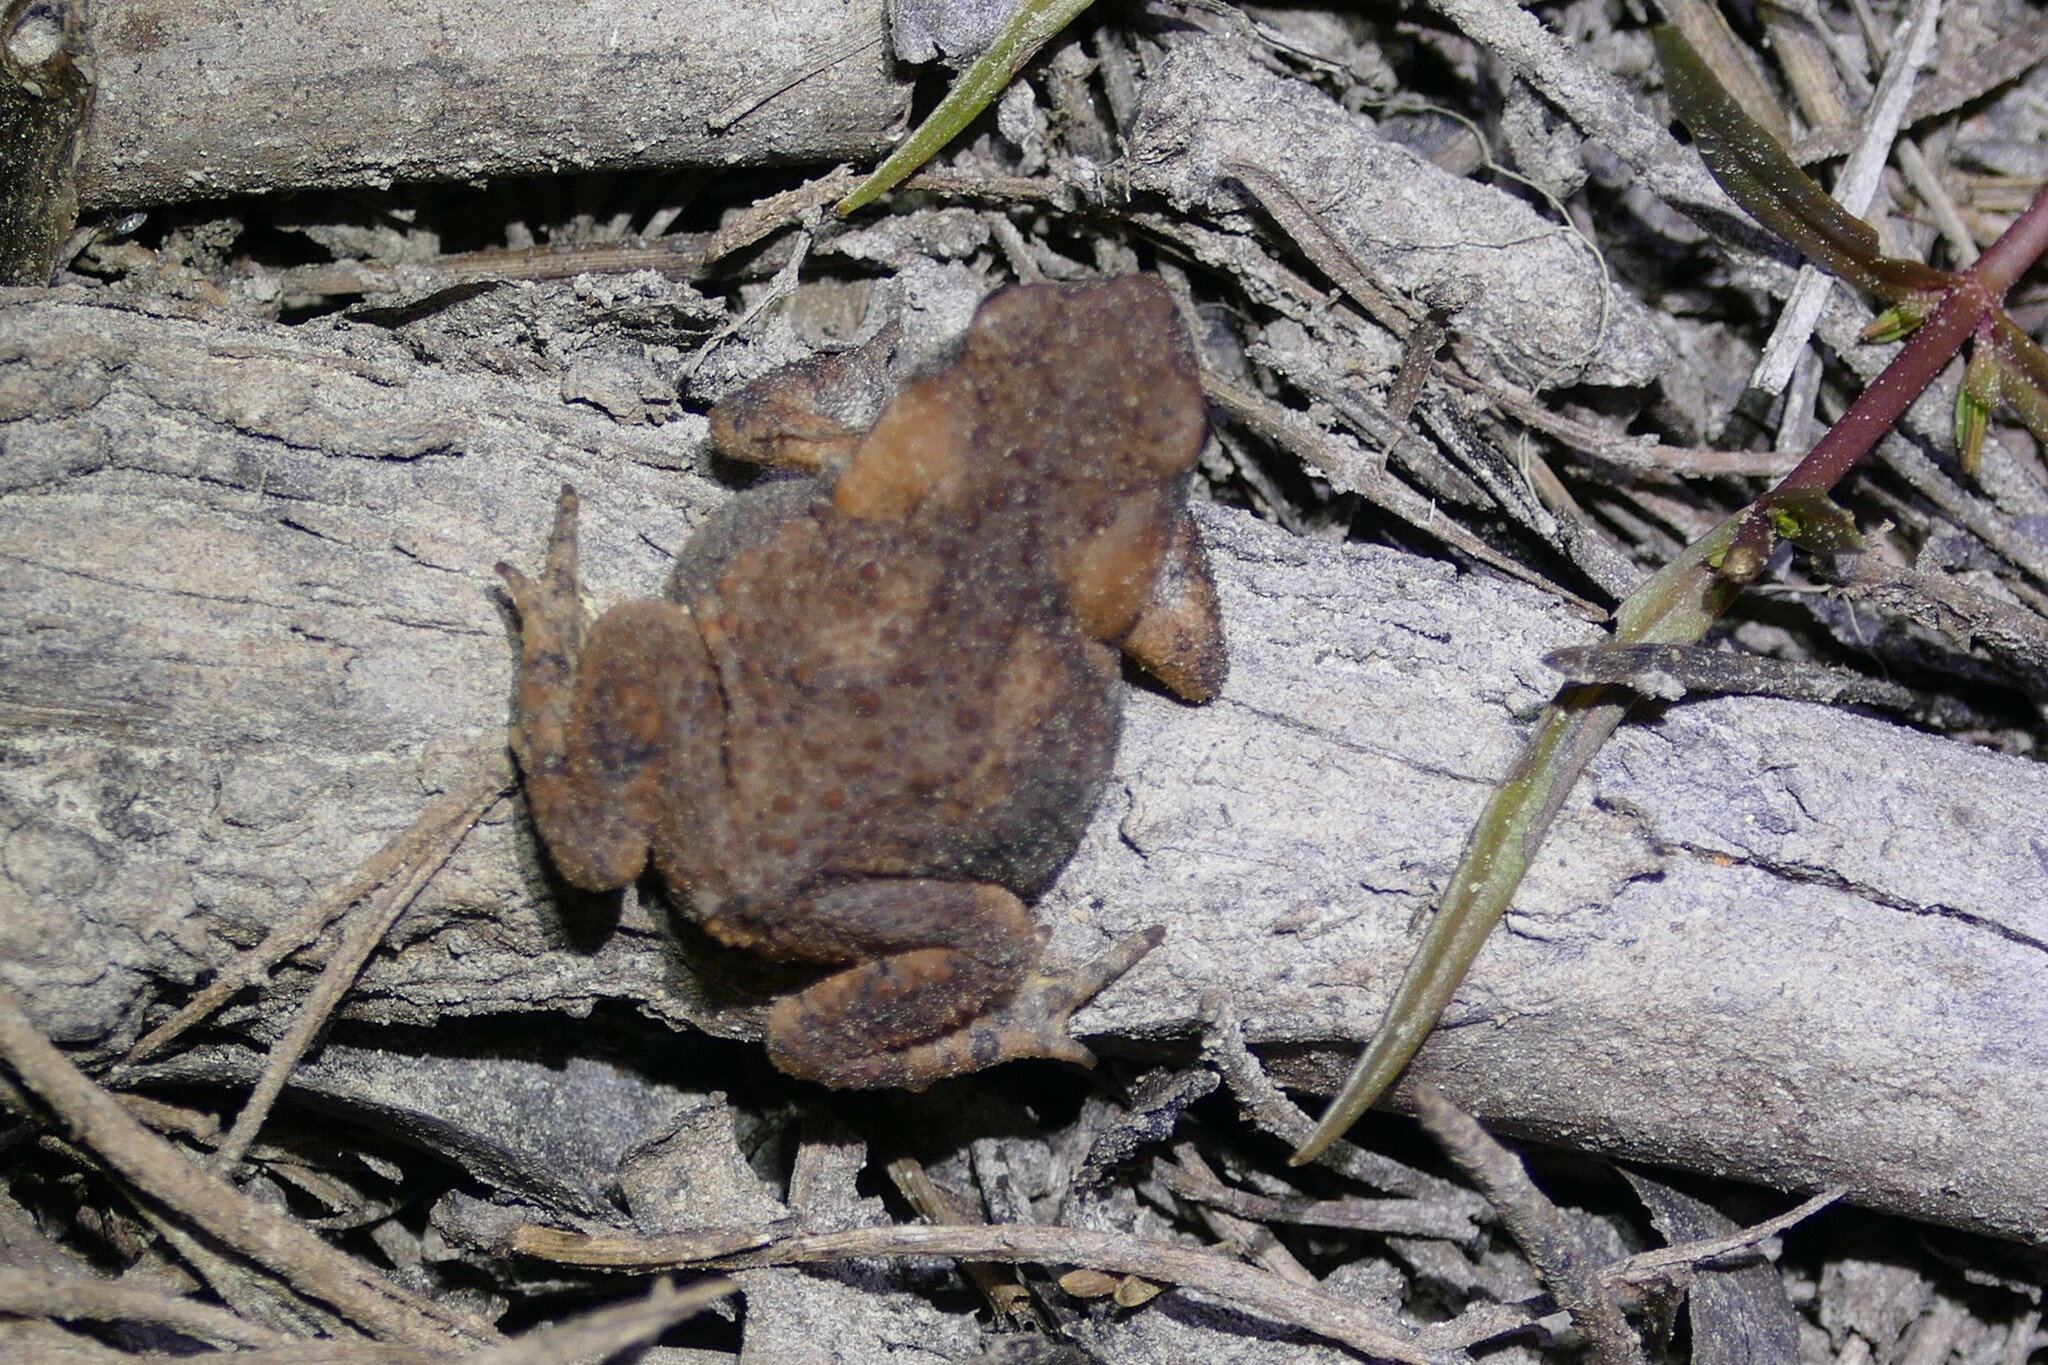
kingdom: Animalia
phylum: Chordata
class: Amphibia
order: Anura
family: Bufonidae
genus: Bufo
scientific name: Bufo spinosus
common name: Western common toad
